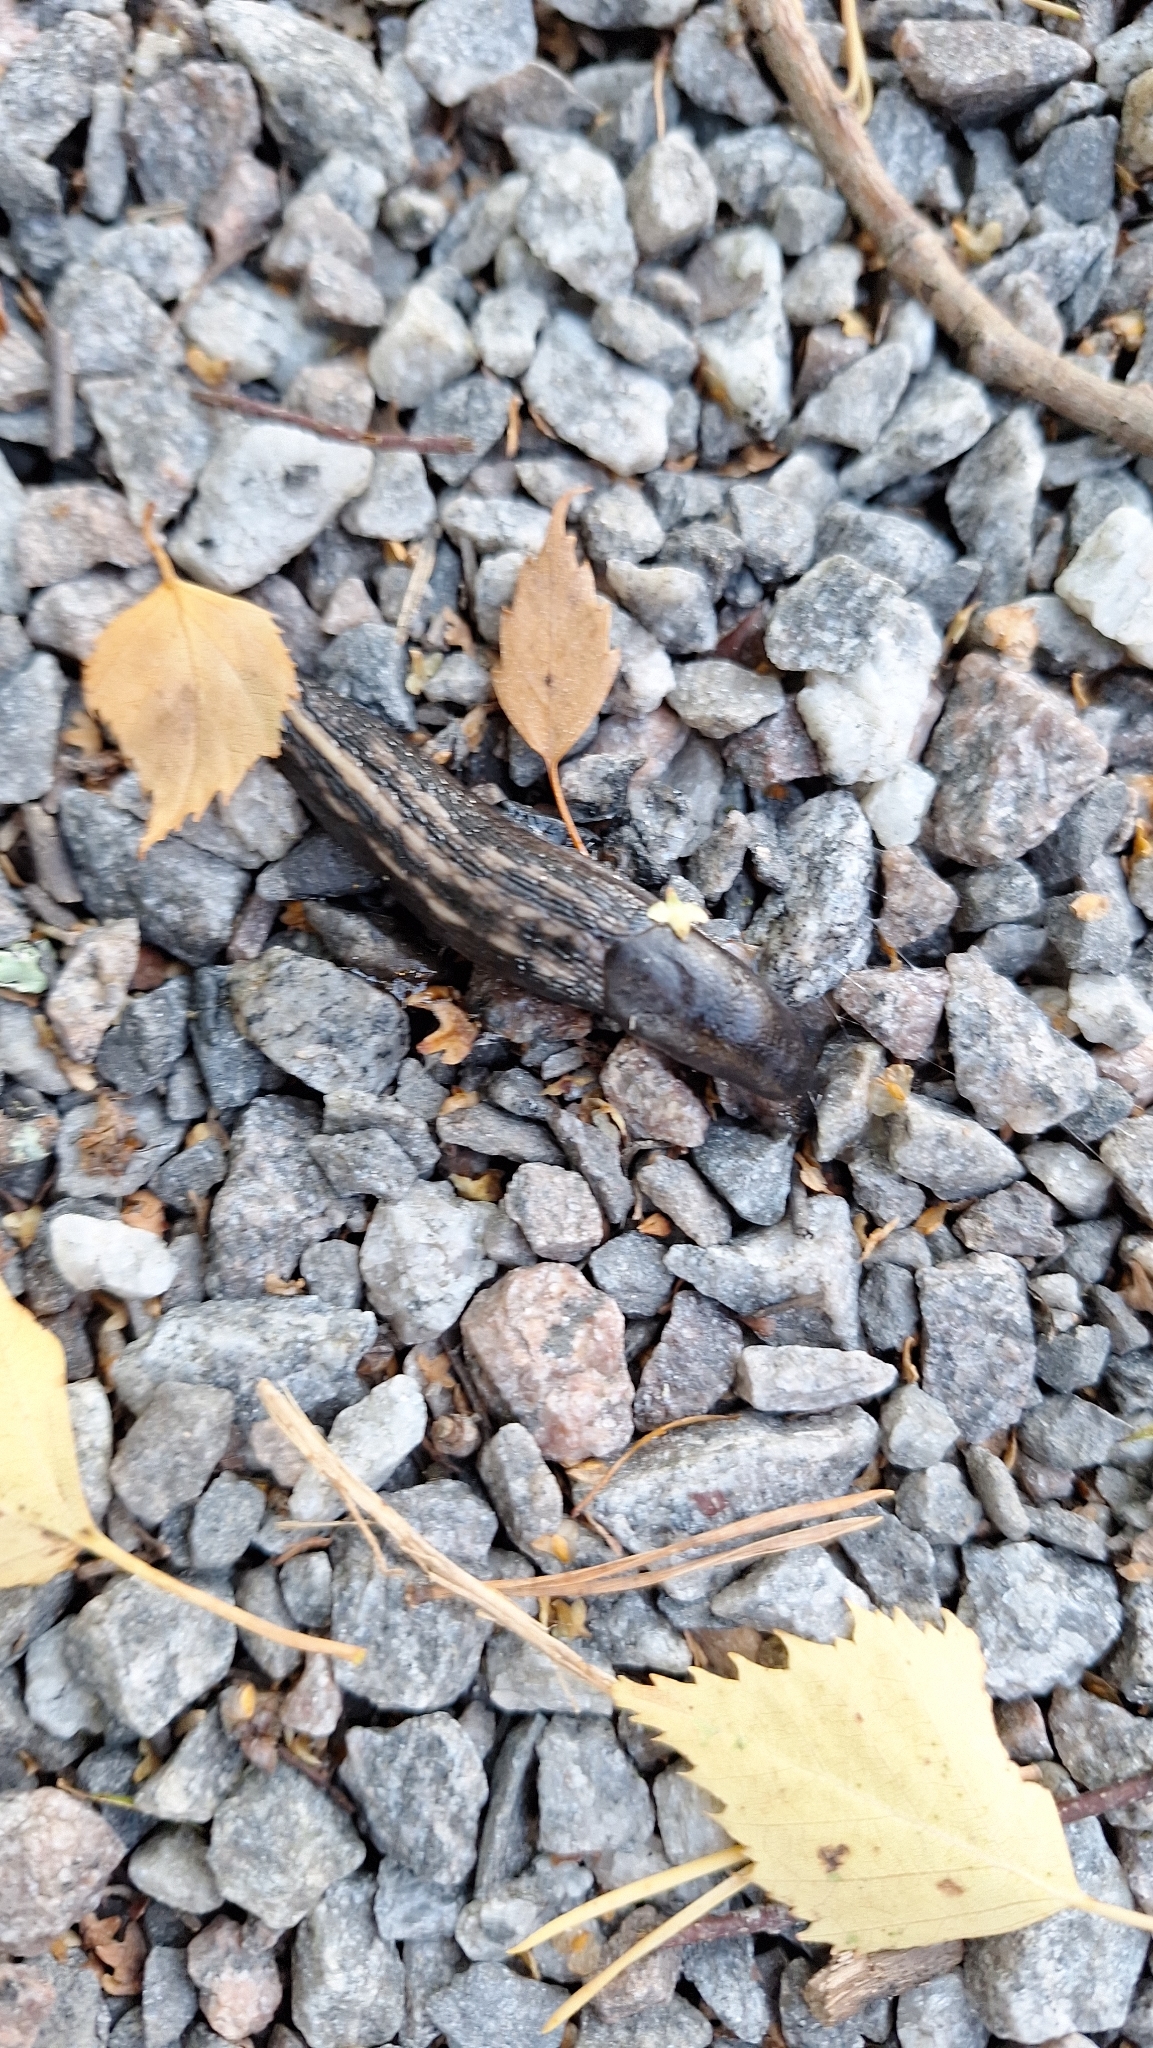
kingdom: Animalia
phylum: Mollusca
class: Gastropoda
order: Stylommatophora
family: Limacidae
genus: Limax
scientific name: Limax cinereoniger
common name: Ash-black slug
